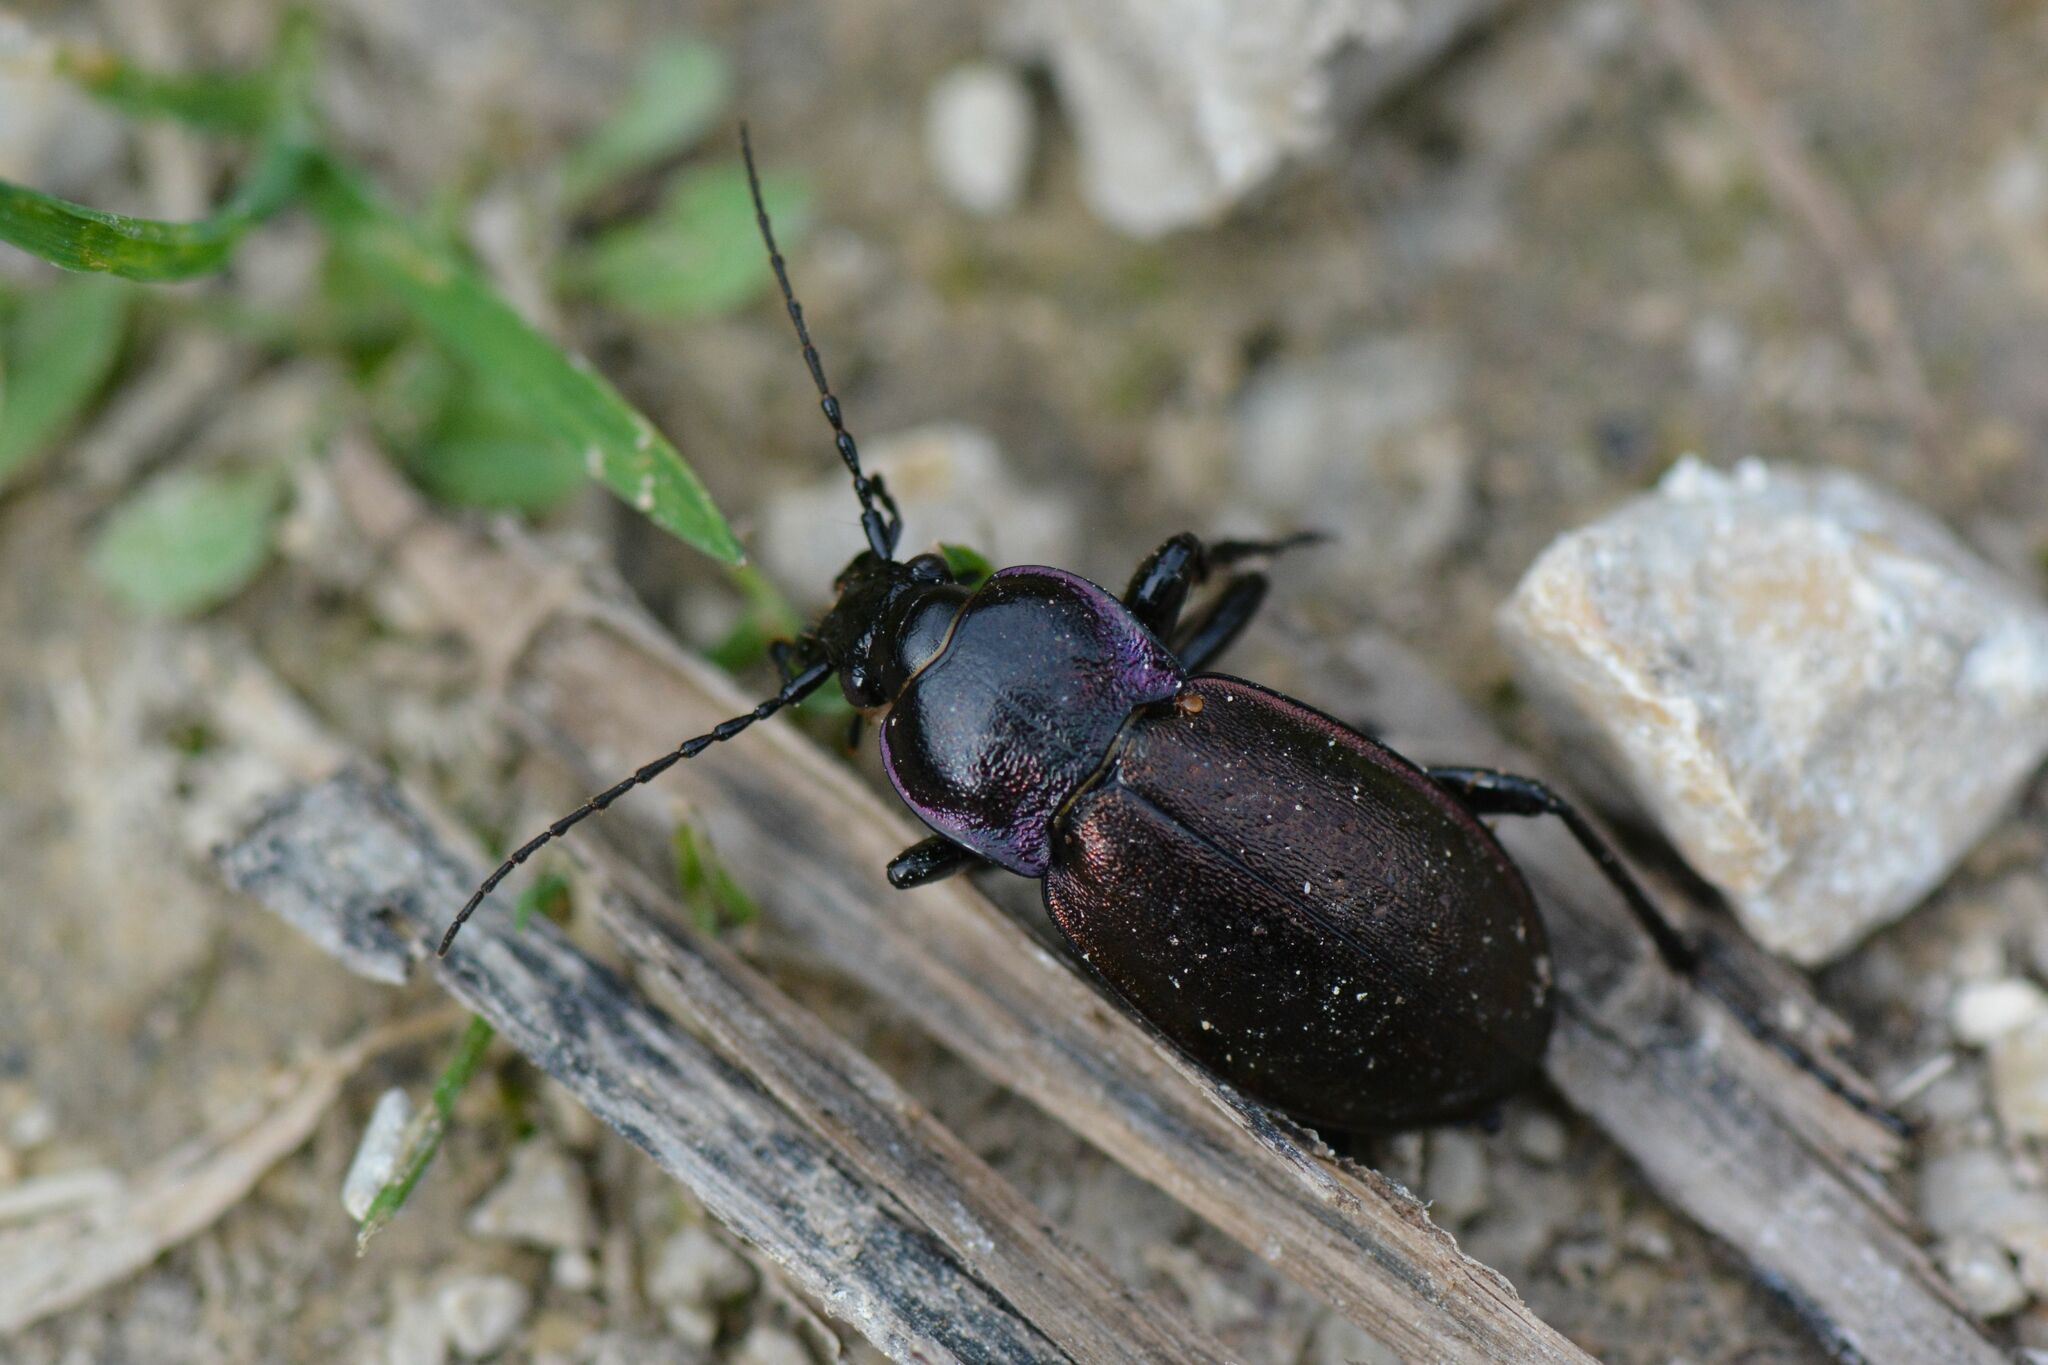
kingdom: Animalia
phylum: Arthropoda
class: Insecta
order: Coleoptera
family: Carabidae
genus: Carabus
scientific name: Carabus nemoralis
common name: European ground beetle
